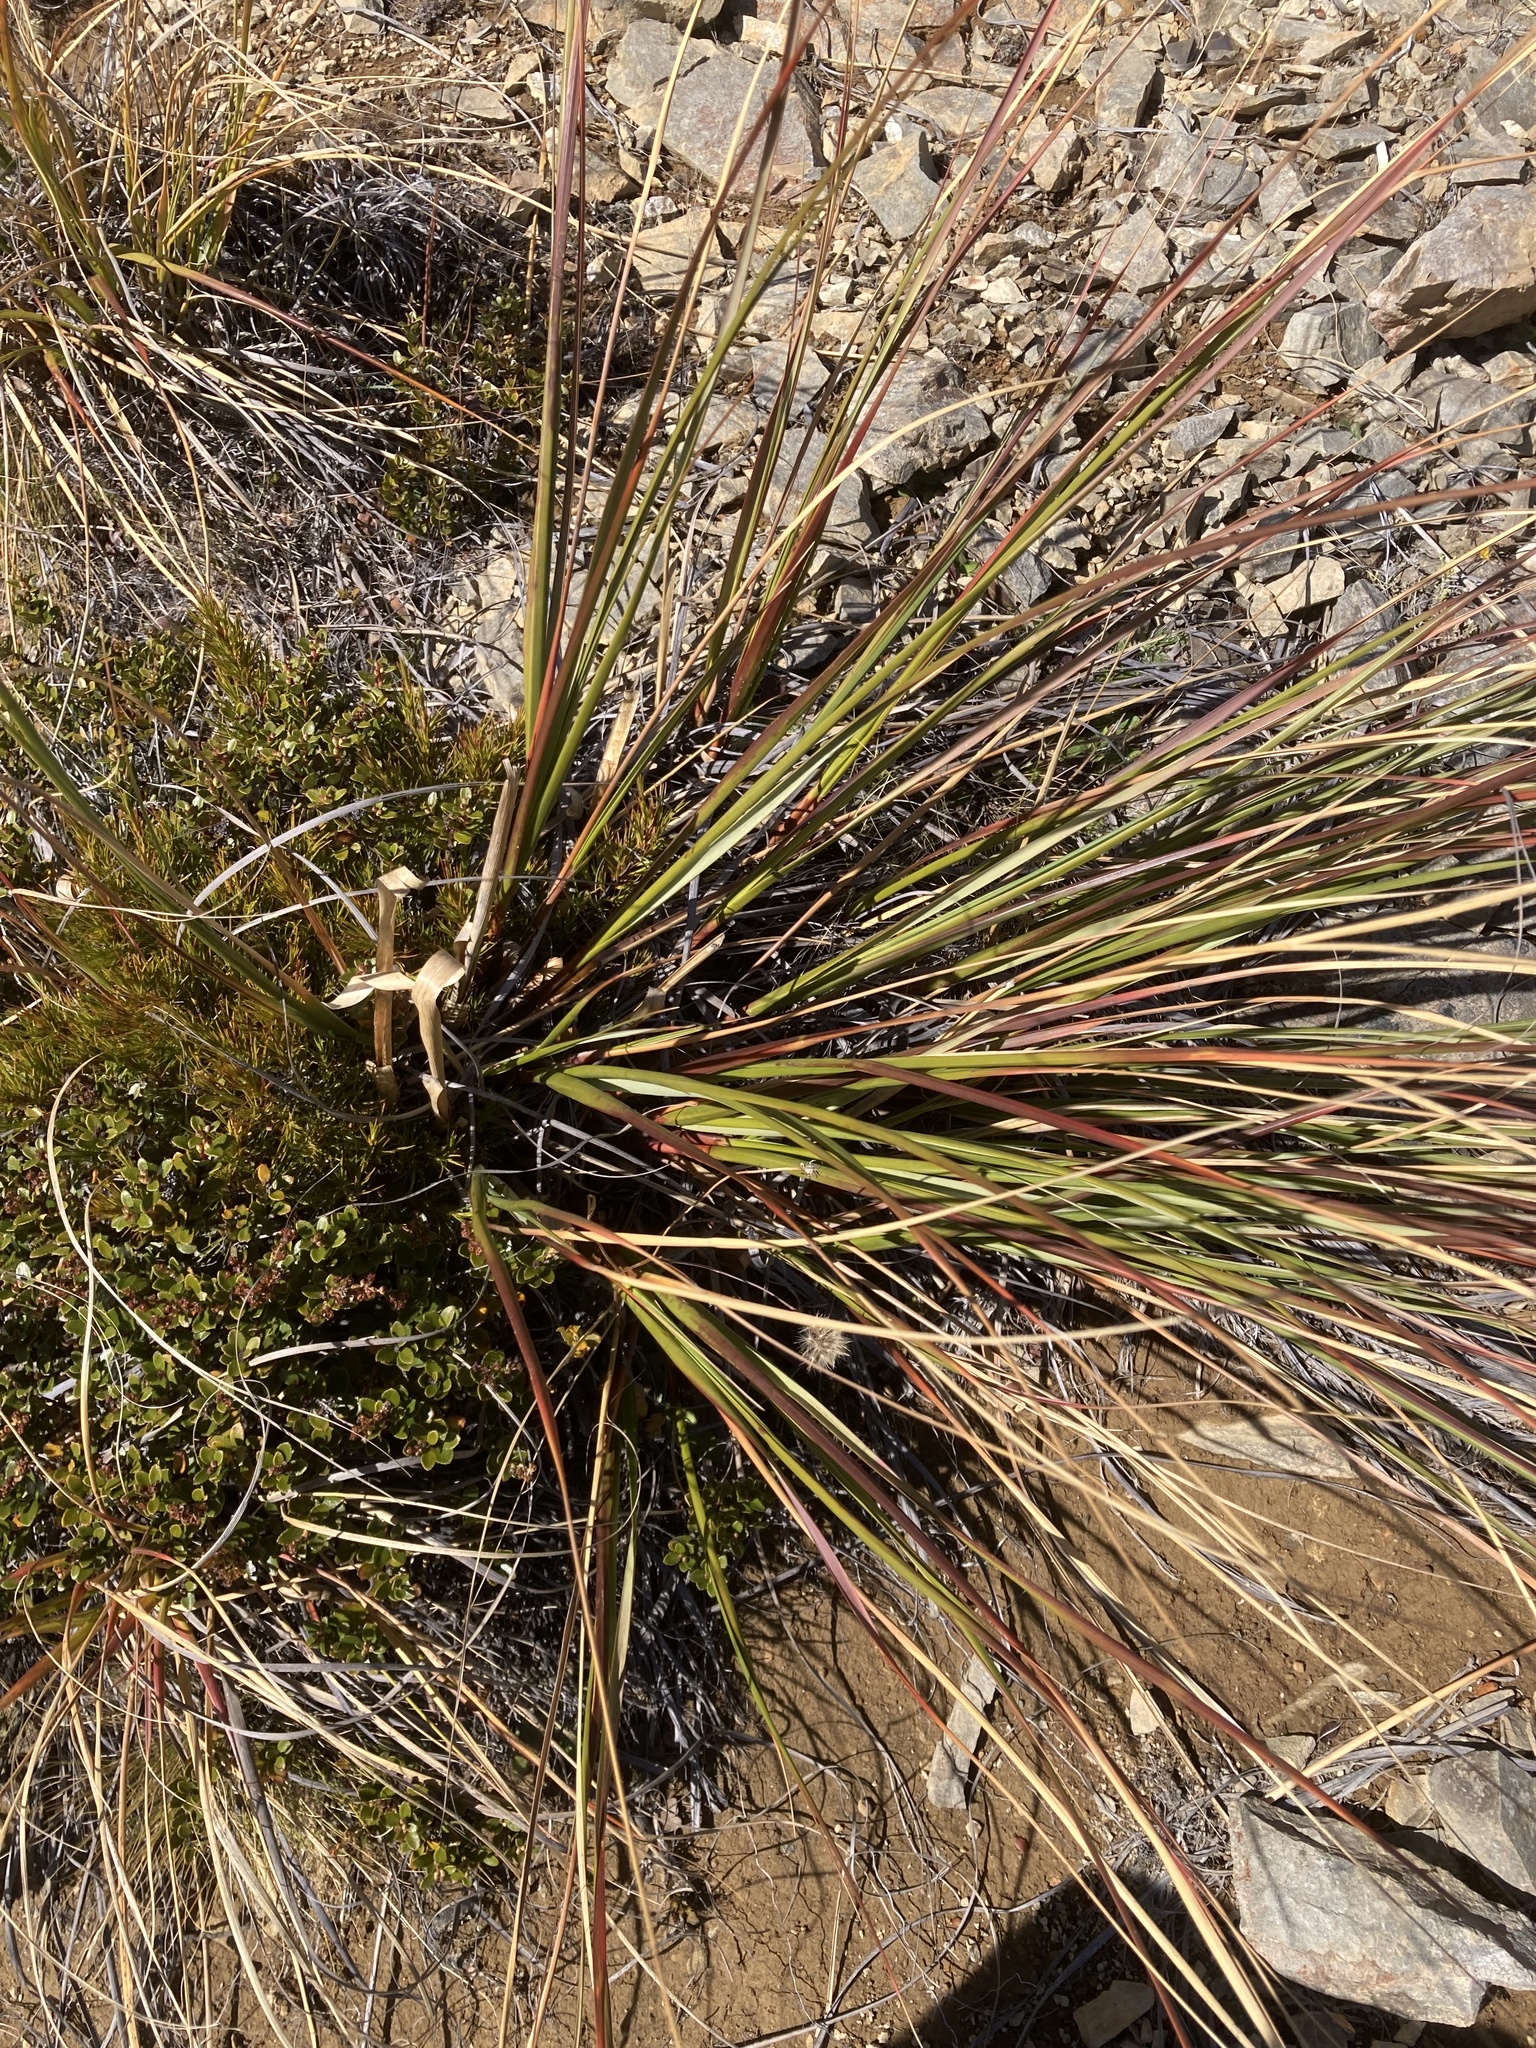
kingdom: Plantae
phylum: Tracheophyta
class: Liliopsida
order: Poales
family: Poaceae
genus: Chionochloa
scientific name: Chionochloa flavescens
